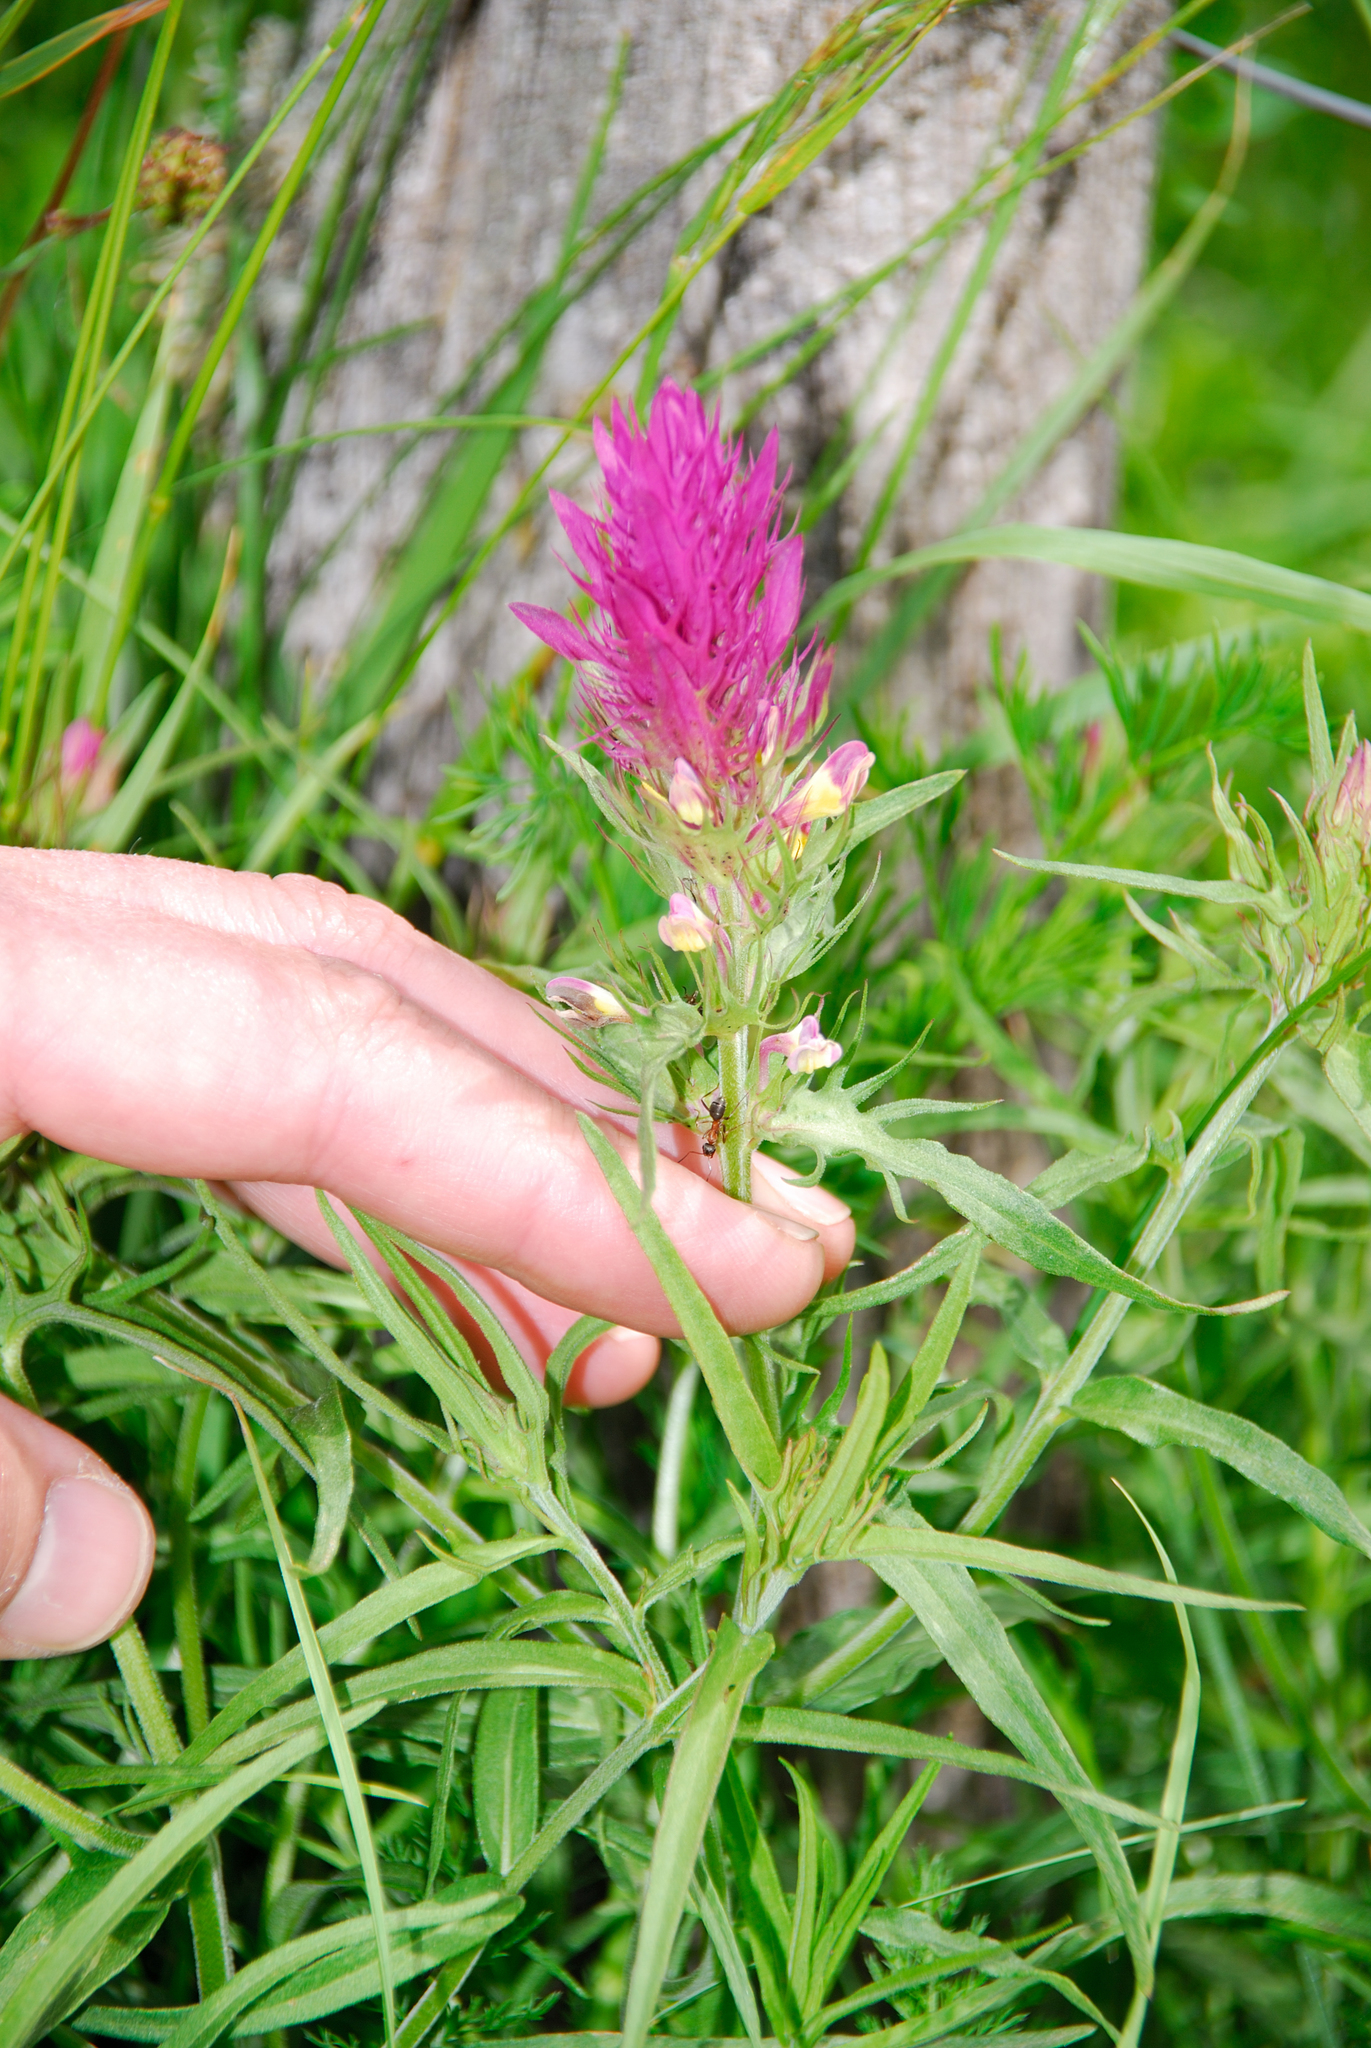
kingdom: Plantae
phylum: Tracheophyta
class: Magnoliopsida
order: Lamiales
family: Orobanchaceae
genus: Melampyrum
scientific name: Melampyrum arvense
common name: Field cow-wheat
